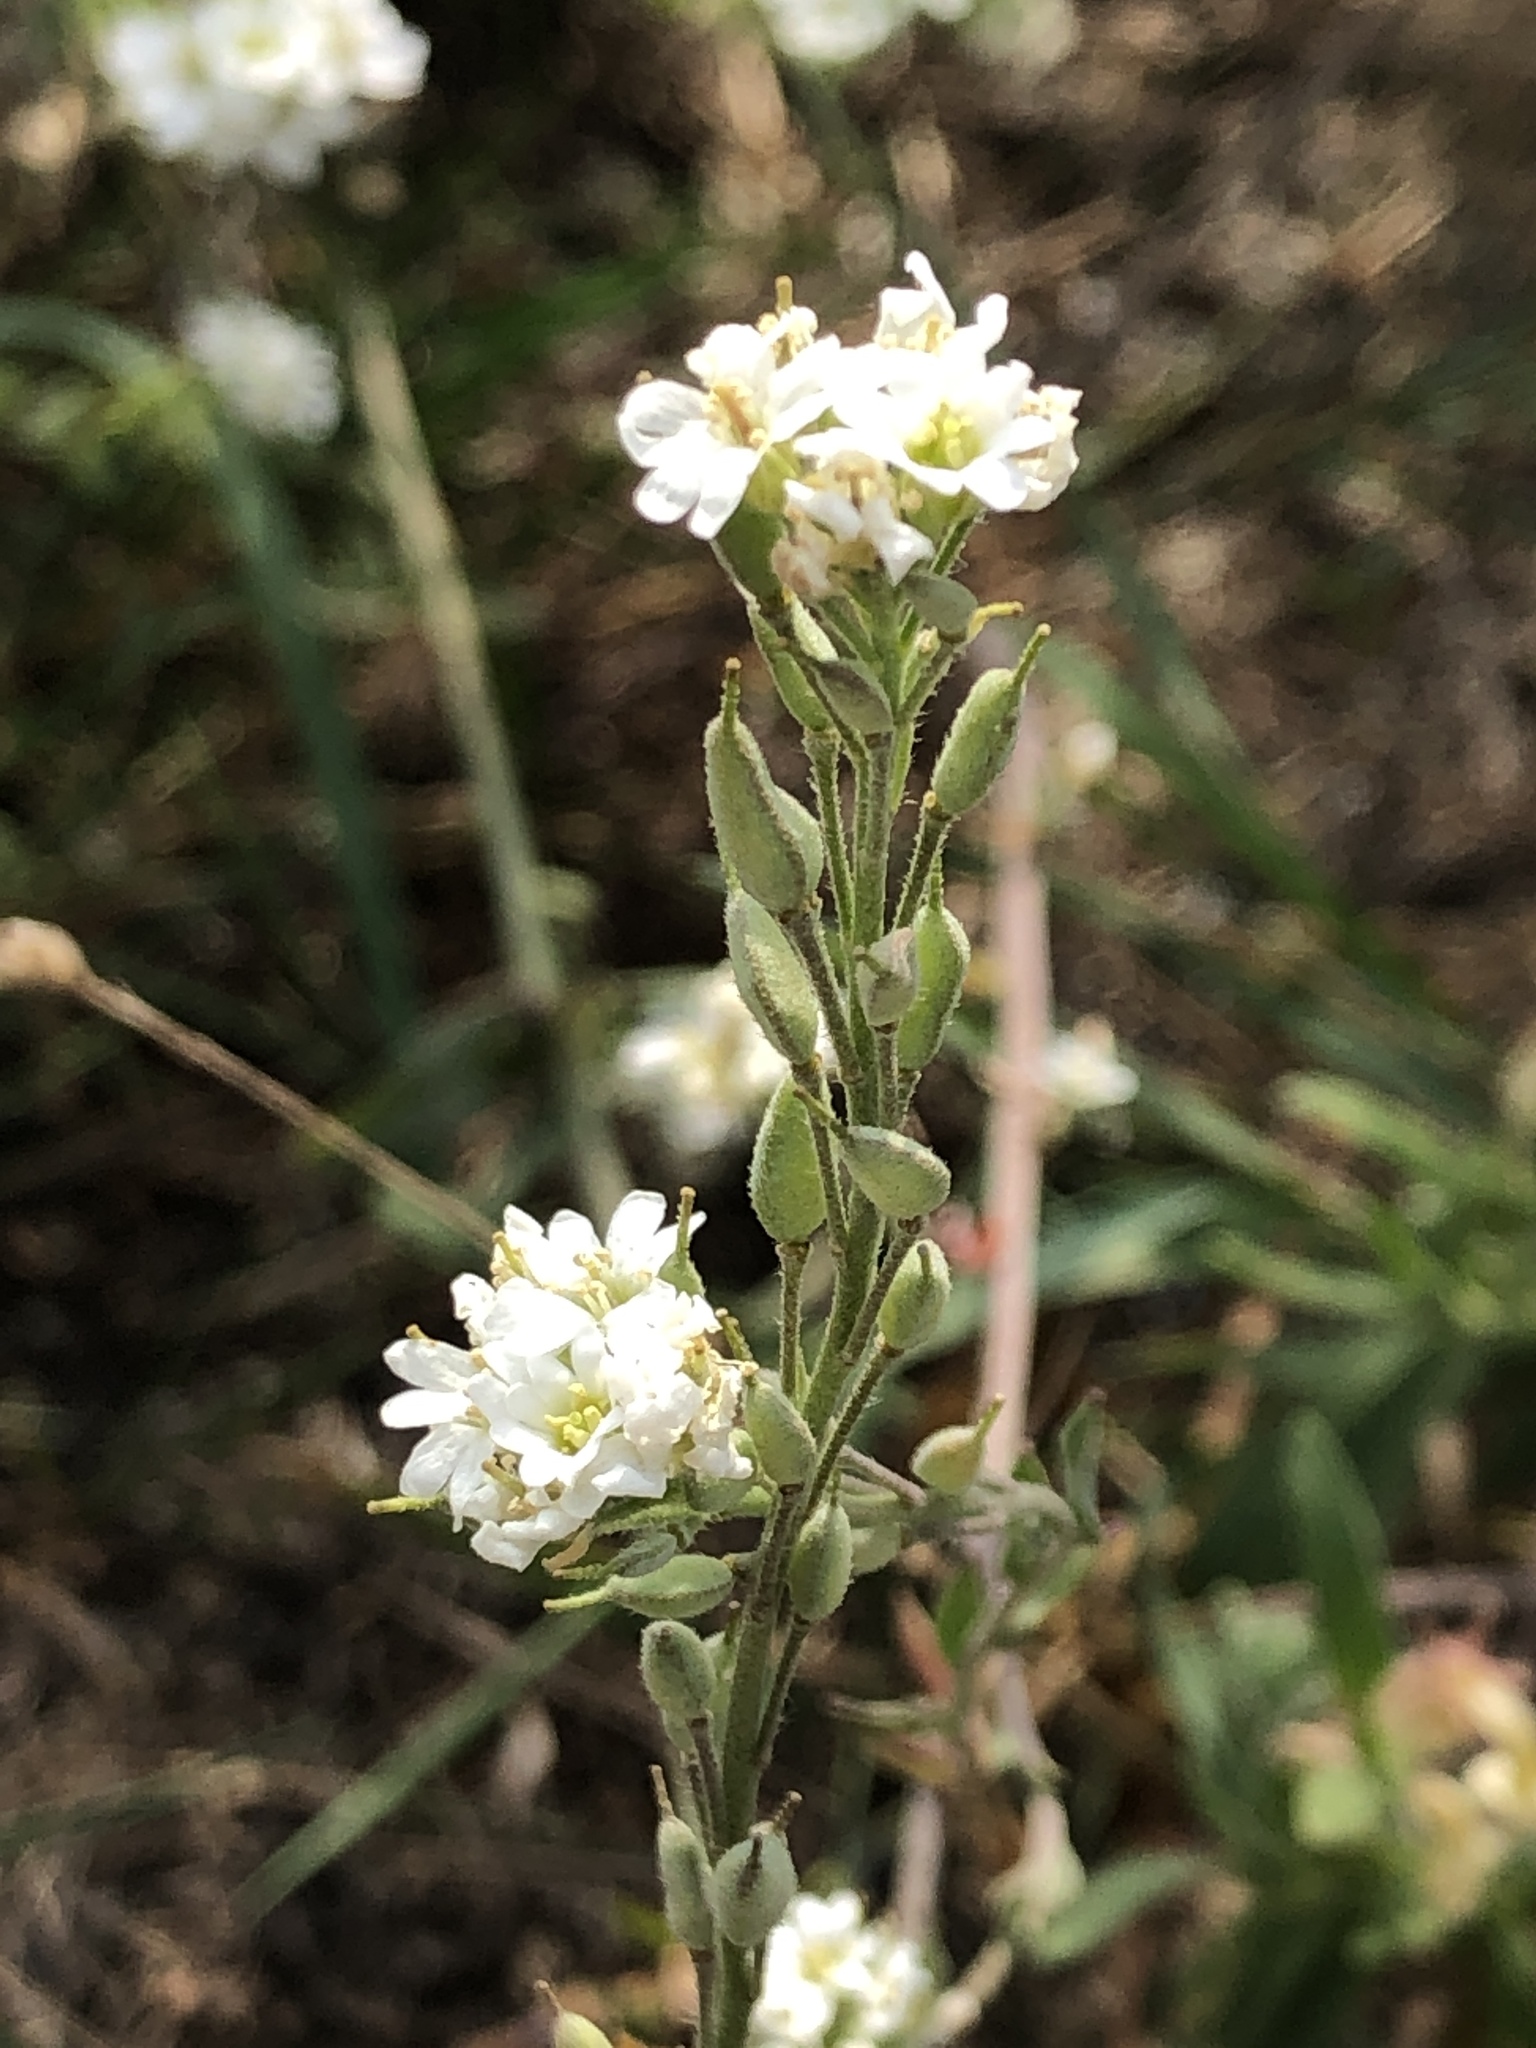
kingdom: Plantae
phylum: Tracheophyta
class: Magnoliopsida
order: Brassicales
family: Brassicaceae
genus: Berteroa
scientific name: Berteroa incana
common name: Hoary alison
